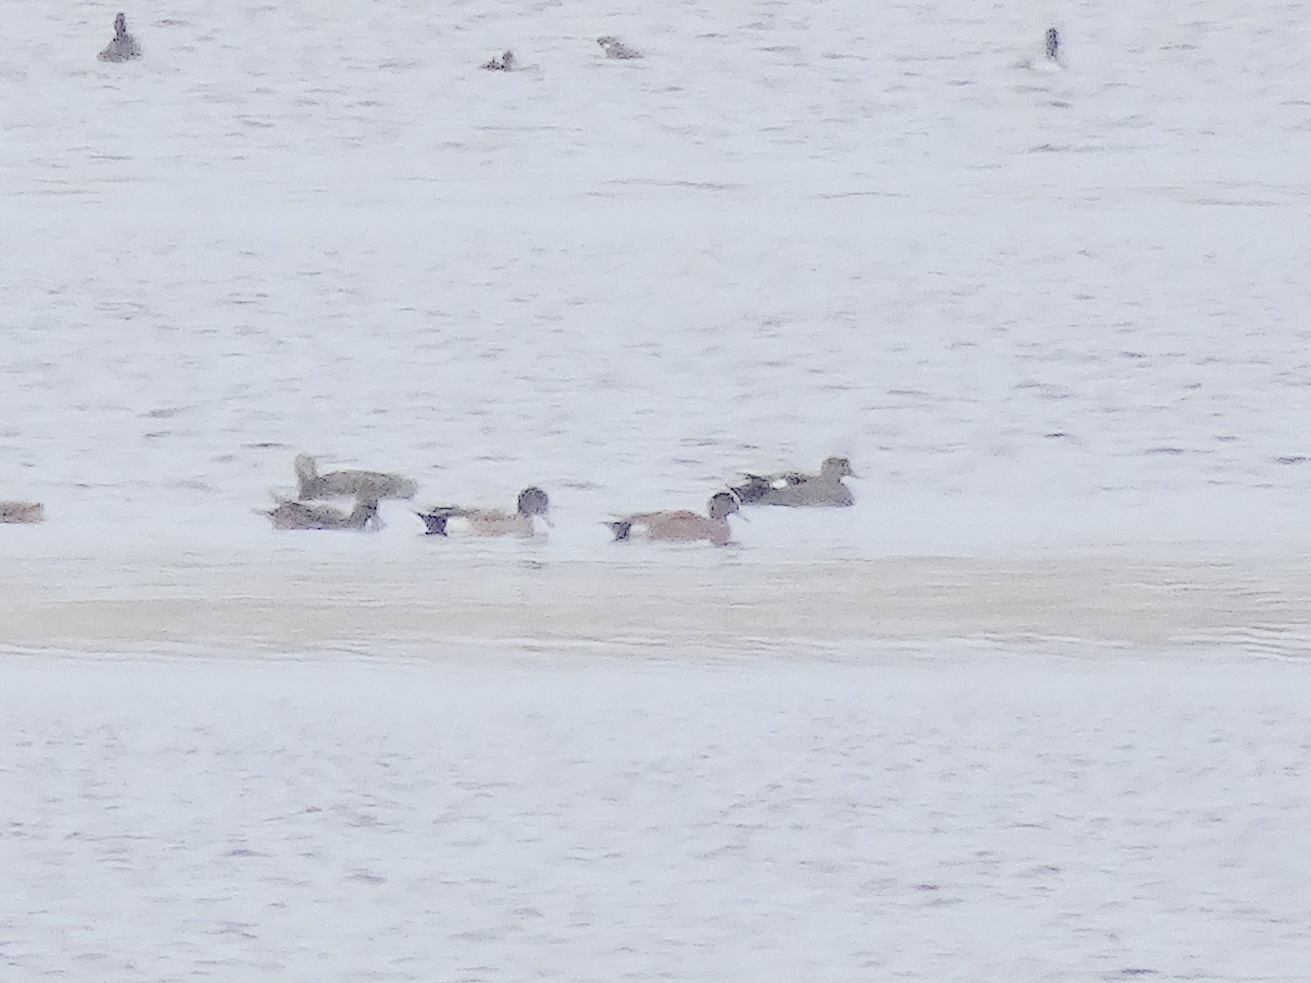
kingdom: Animalia
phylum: Chordata
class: Aves
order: Anseriformes
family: Anatidae
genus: Mareca
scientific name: Mareca strepera
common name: Gadwall
